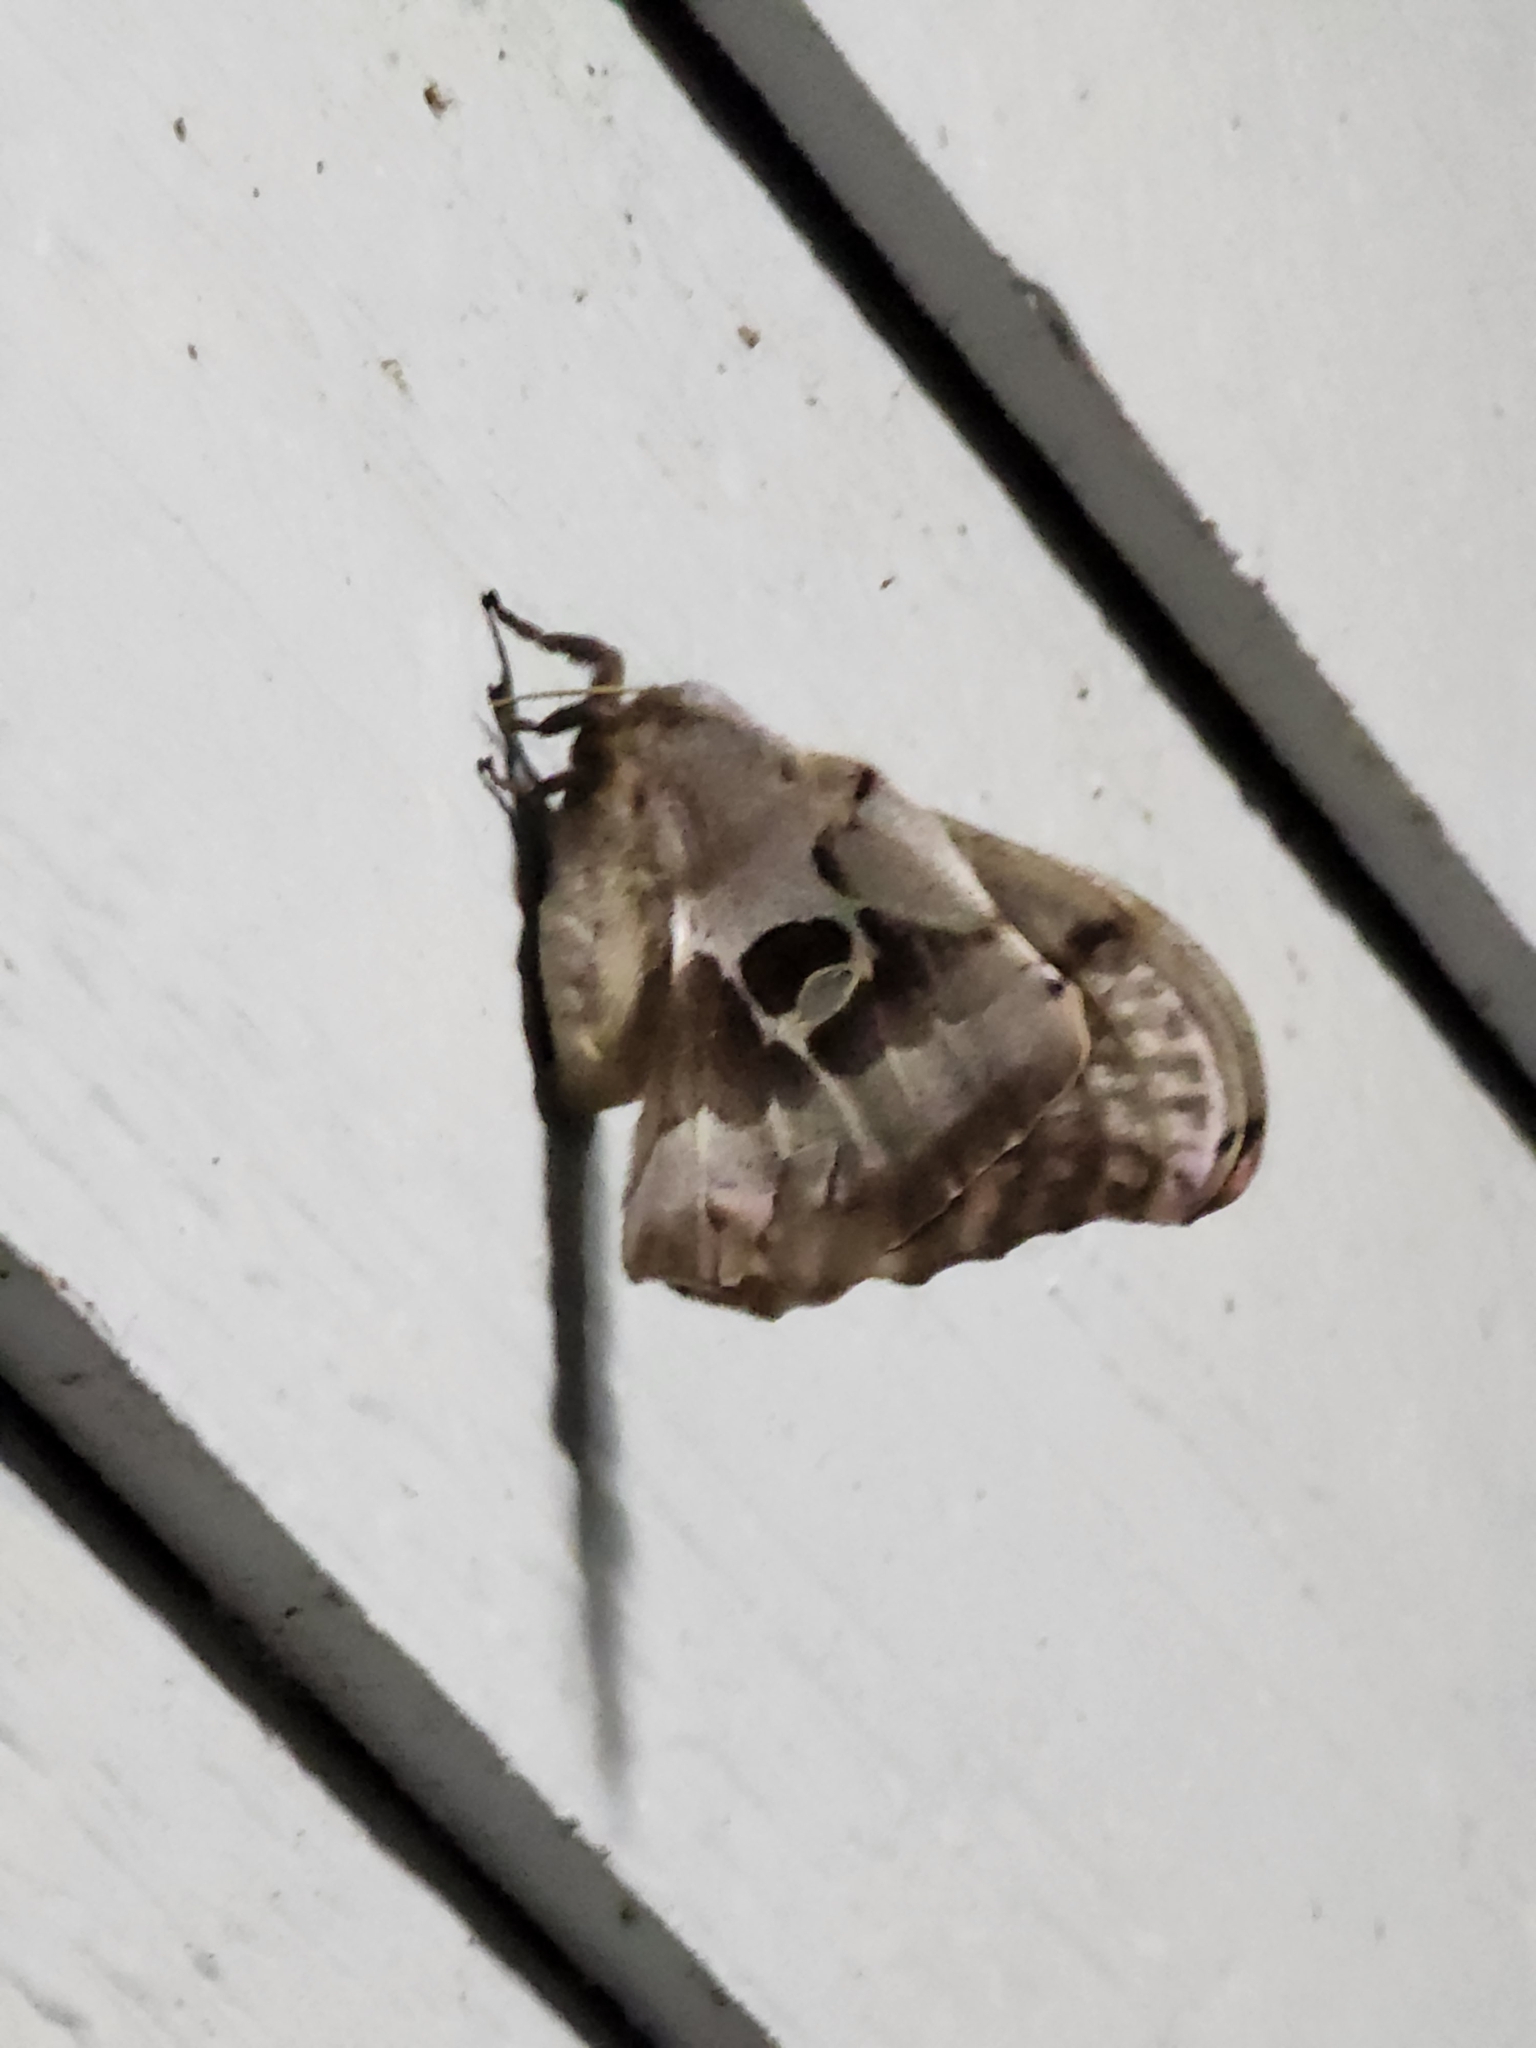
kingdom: Animalia
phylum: Arthropoda
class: Insecta
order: Lepidoptera
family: Saturniidae
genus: Antheraea
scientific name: Antheraea polyphemus
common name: Polyphemus moth
